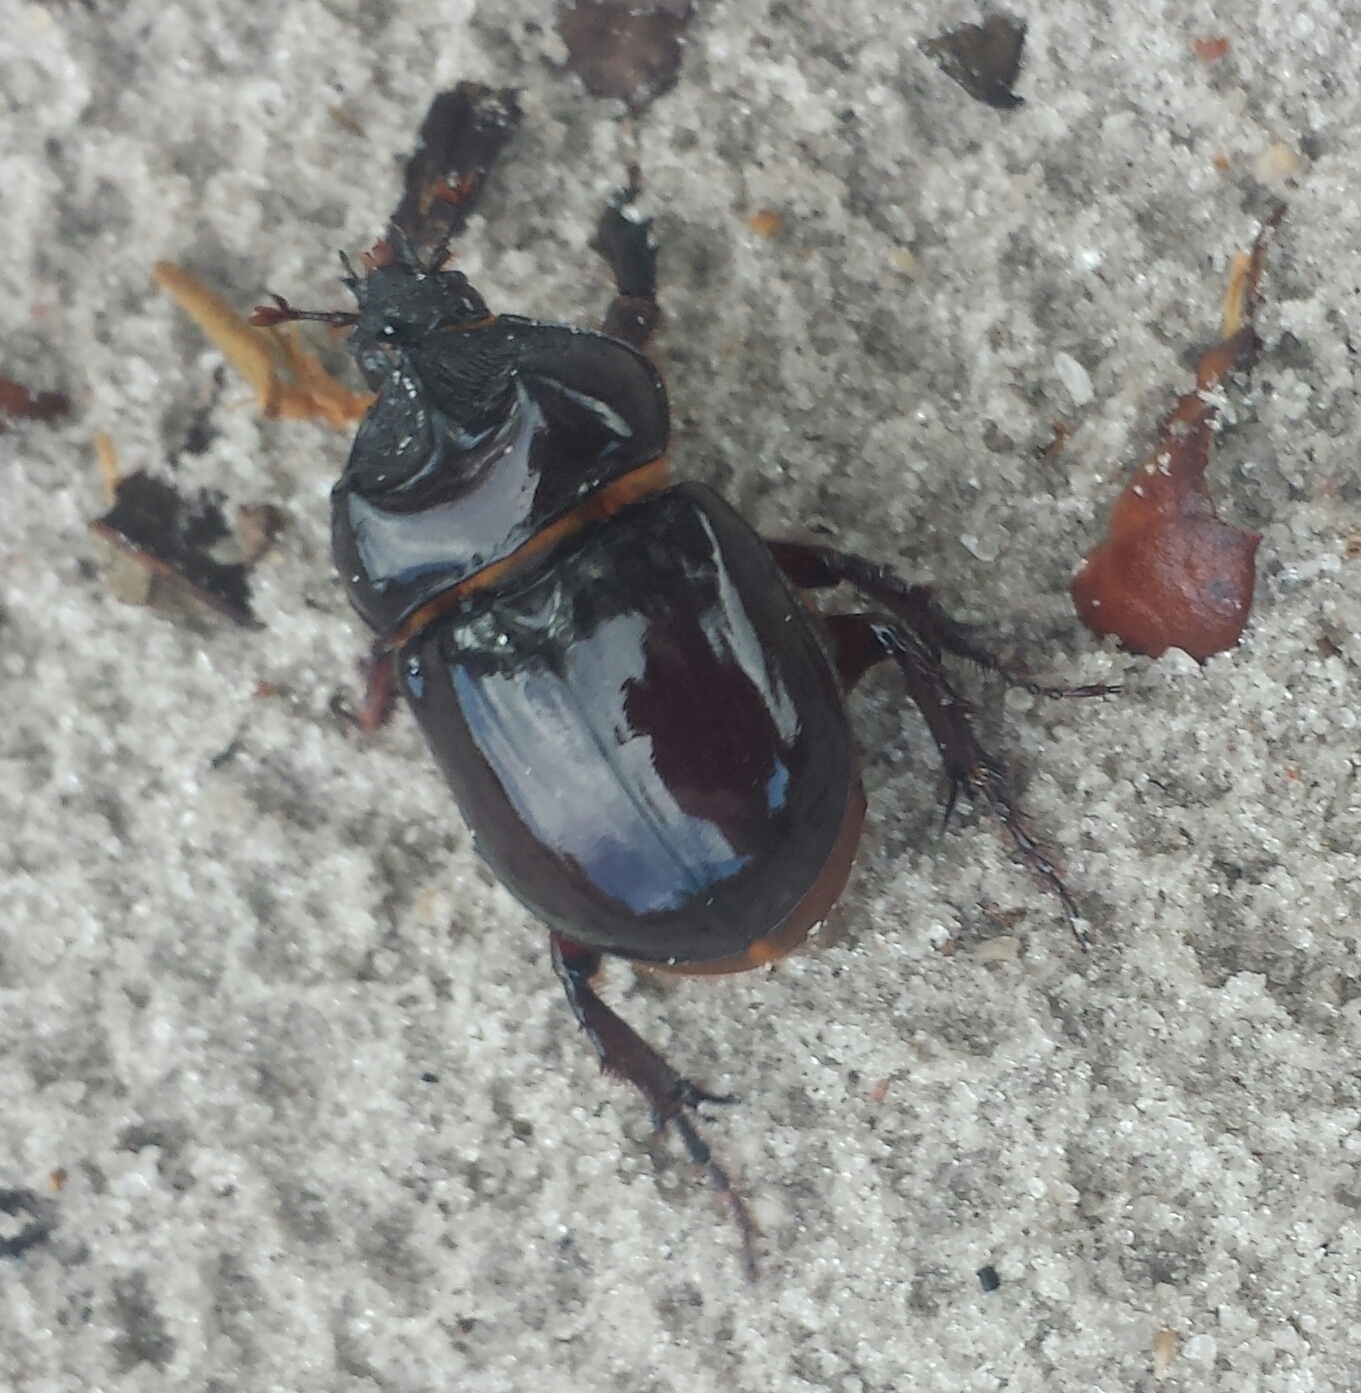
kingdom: Animalia
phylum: Arthropoda
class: Insecta
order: Coleoptera
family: Scarabaeidae
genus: Strategus
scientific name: Strategus antaeus
